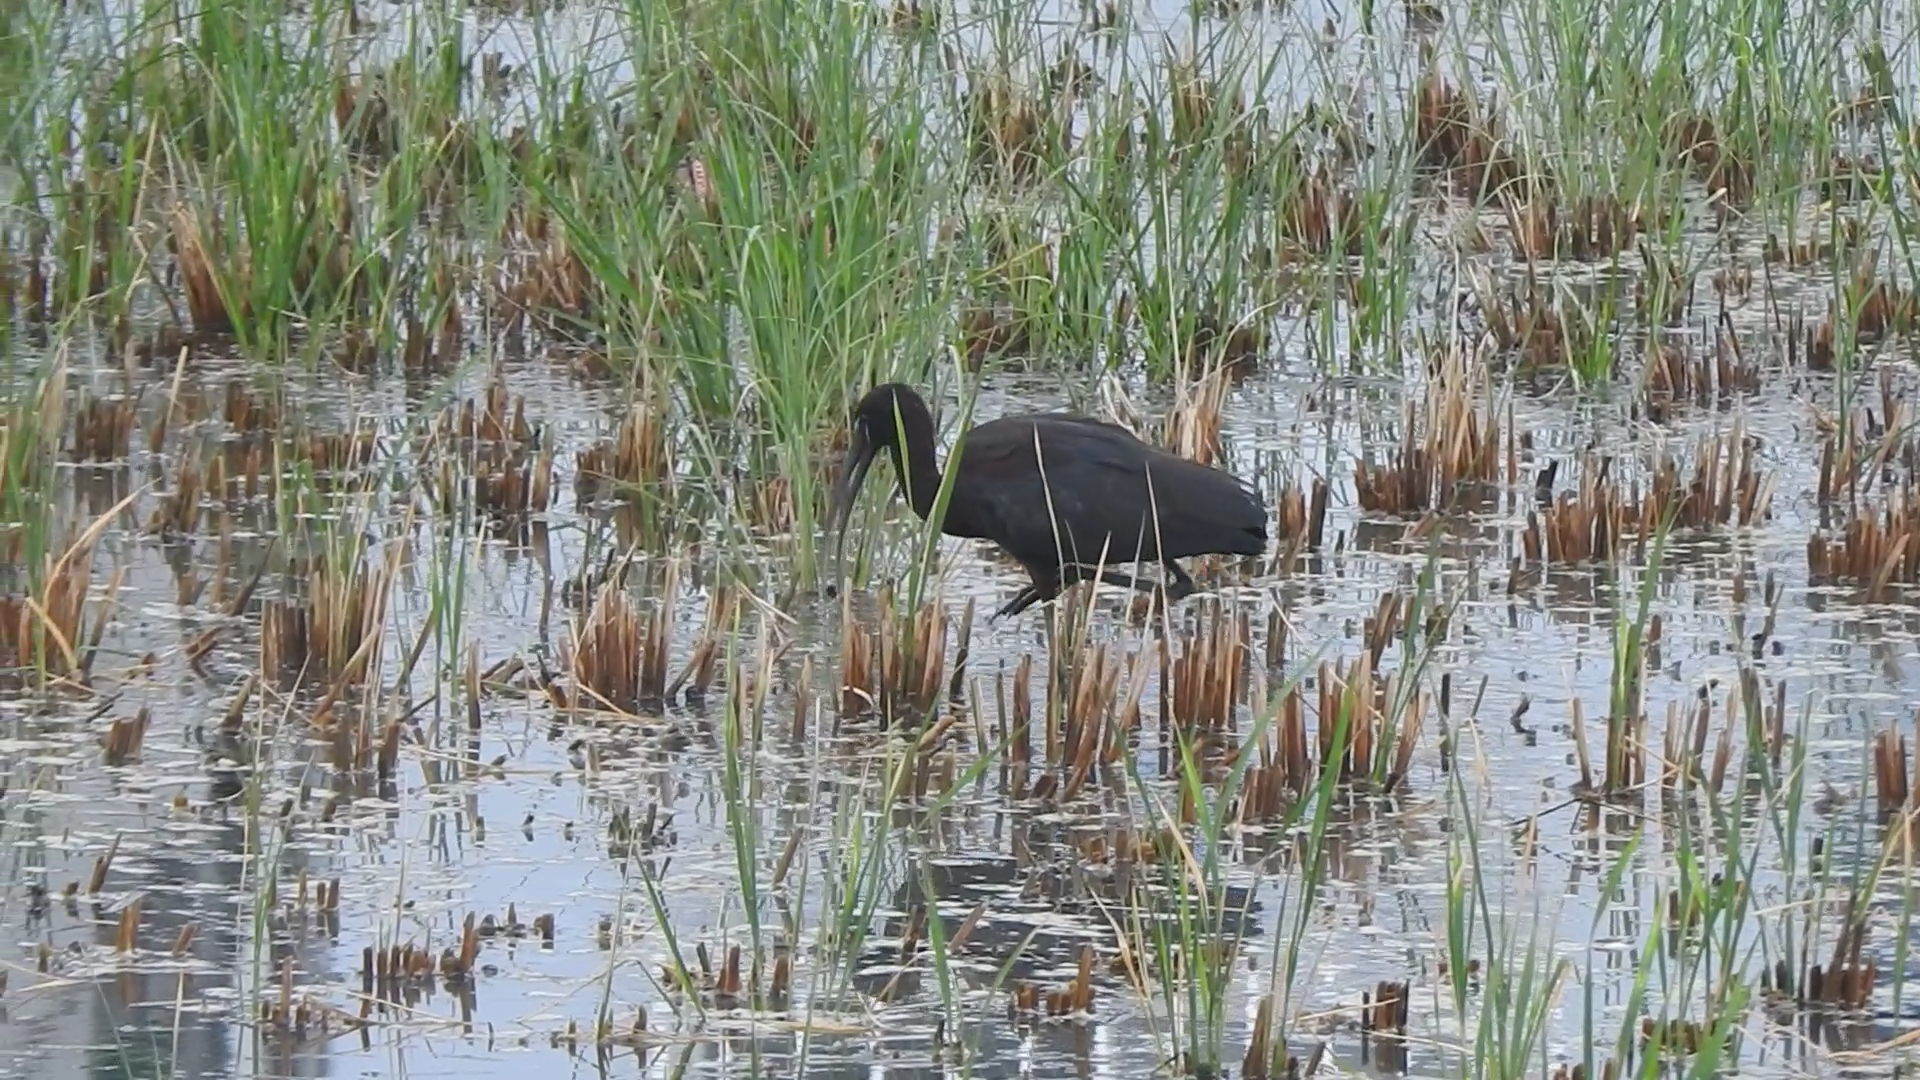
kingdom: Animalia
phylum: Chordata
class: Aves
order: Pelecaniformes
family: Threskiornithidae
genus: Plegadis
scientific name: Plegadis falcinellus
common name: Glossy ibis
